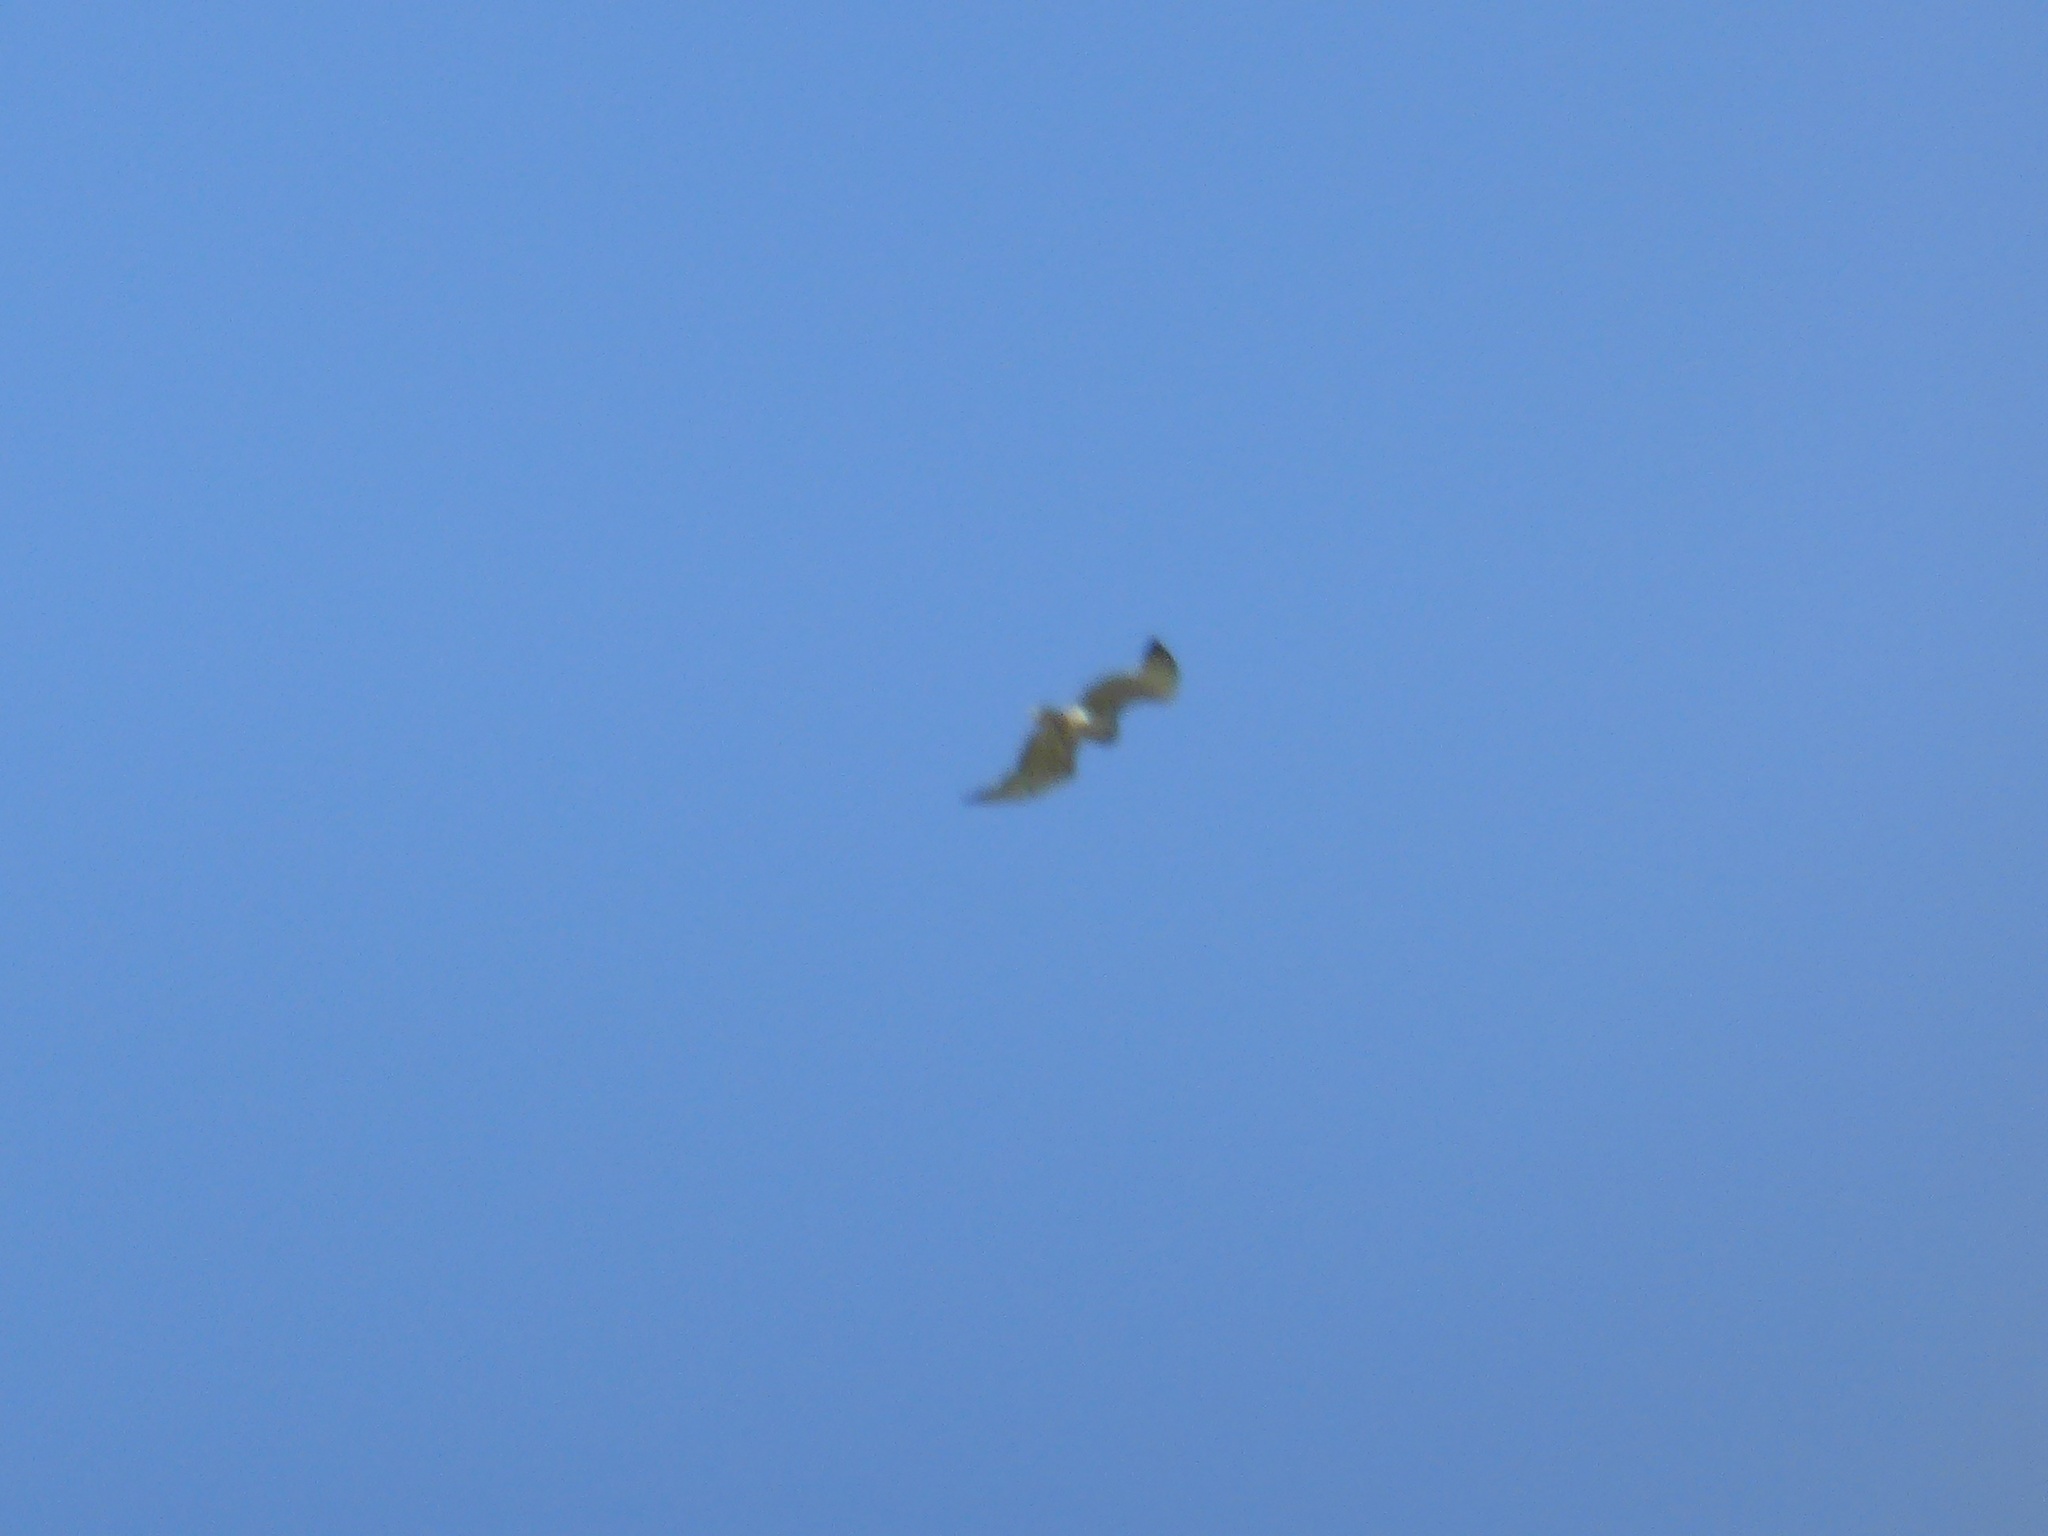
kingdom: Animalia
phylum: Chordata
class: Aves
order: Accipitriformes
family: Accipitridae
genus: Circaetus
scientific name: Circaetus gallicus
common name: Short-toed snake eagle
